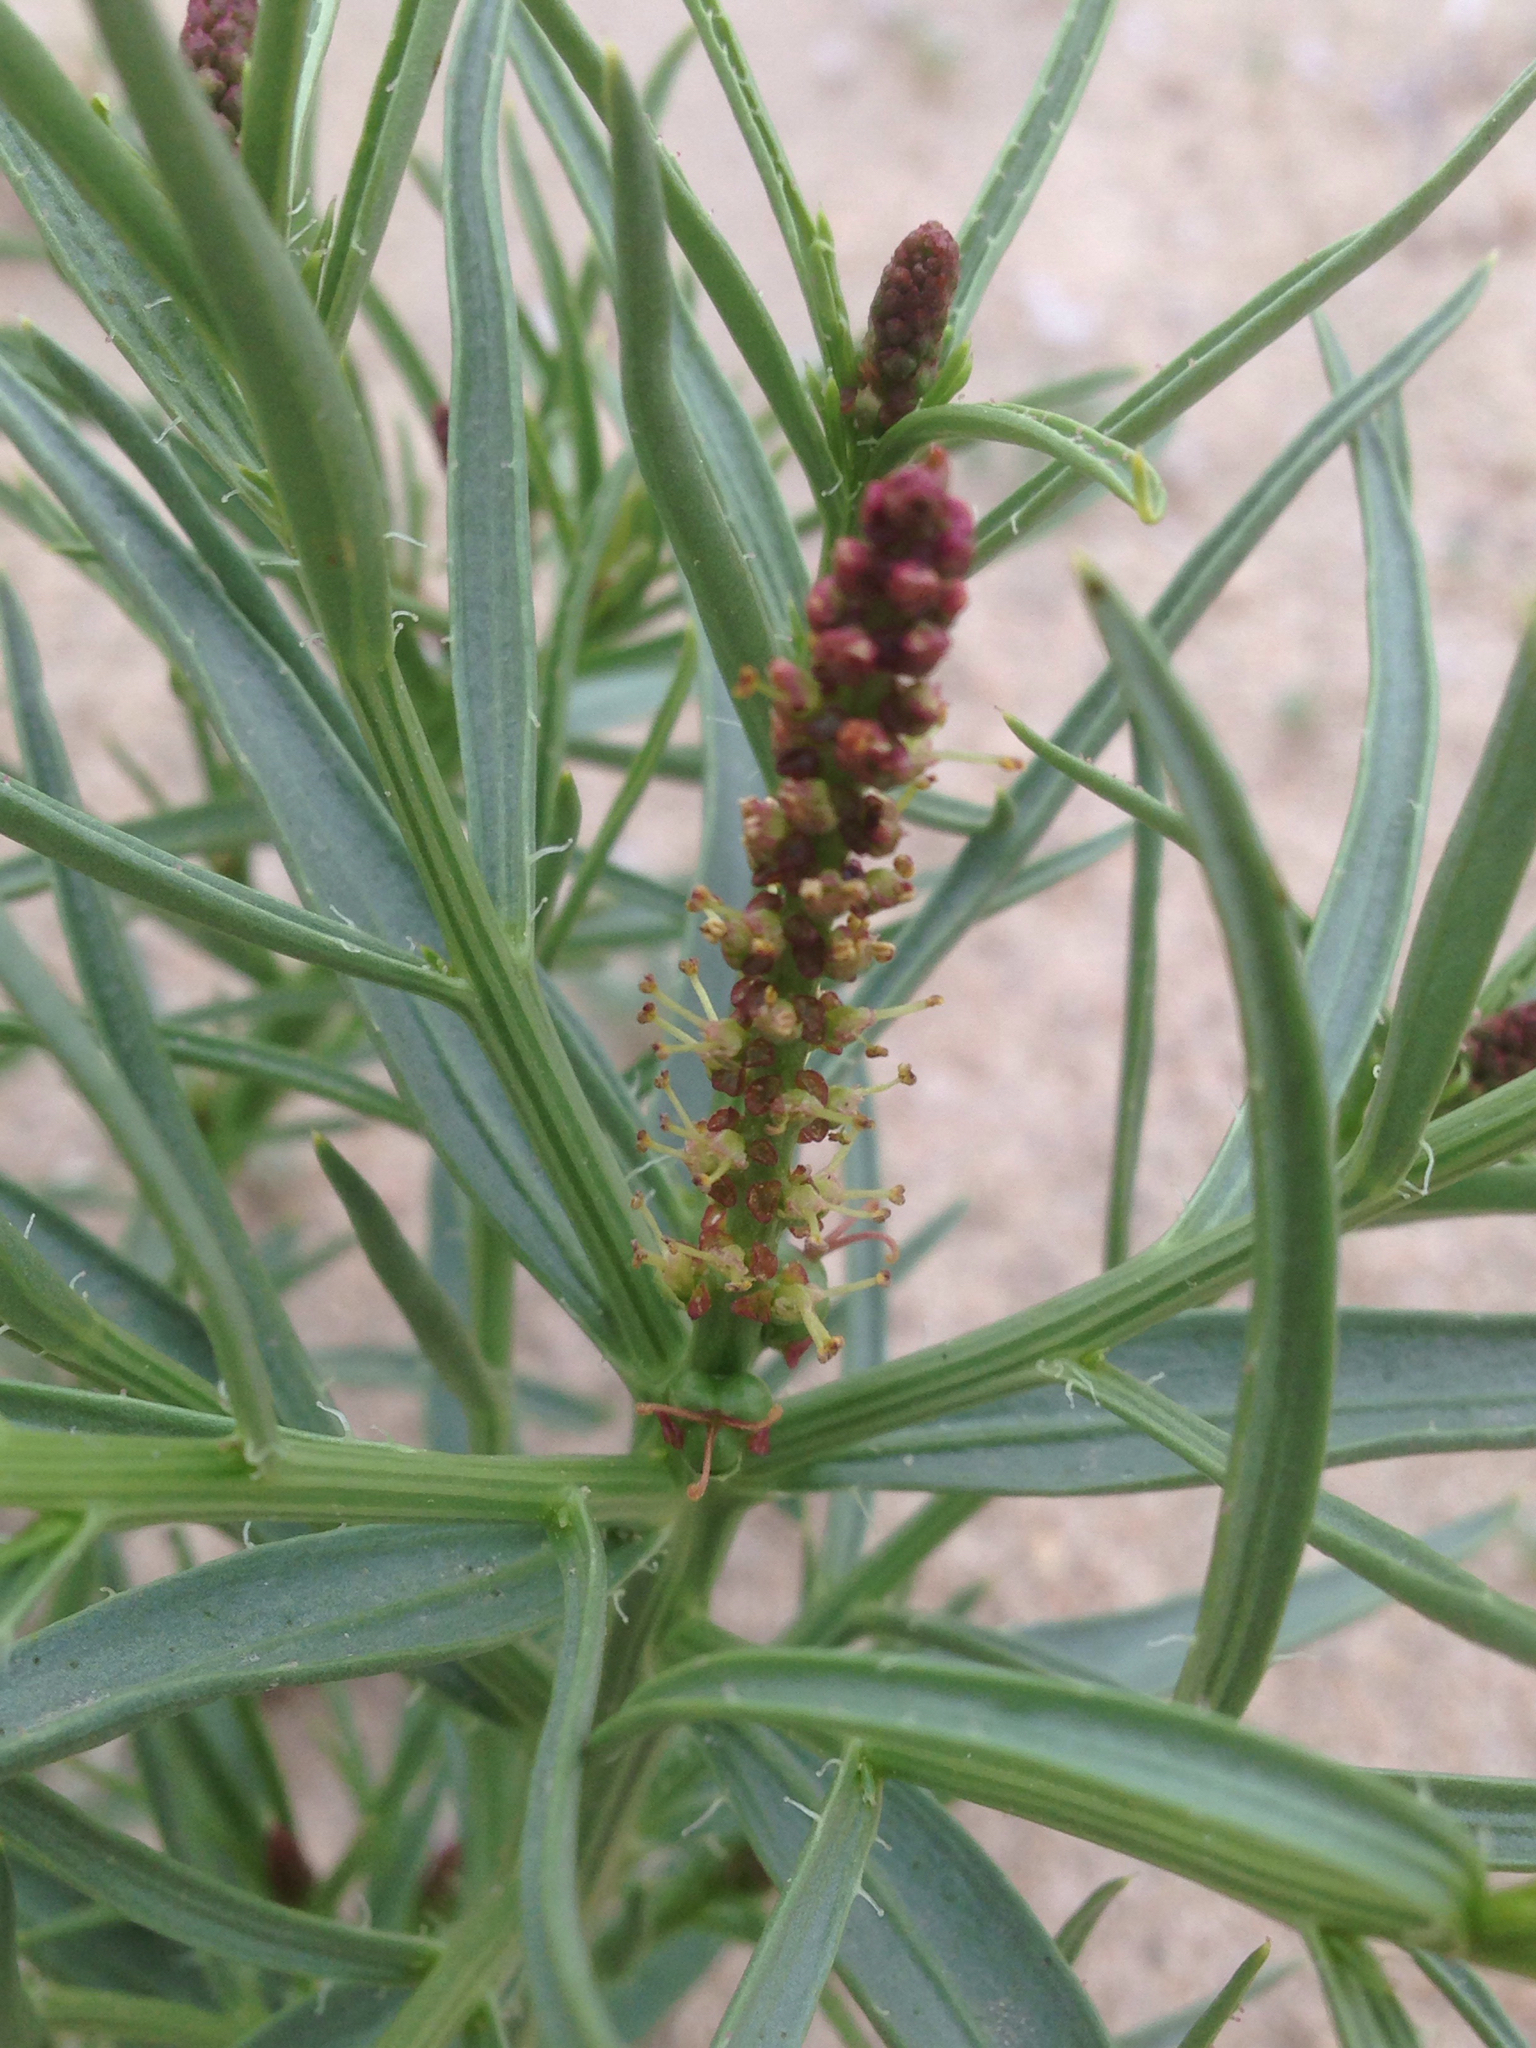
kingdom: Plantae
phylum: Tracheophyta
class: Magnoliopsida
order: Malpighiales
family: Euphorbiaceae
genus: Stillingia
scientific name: Stillingia paucidentata
